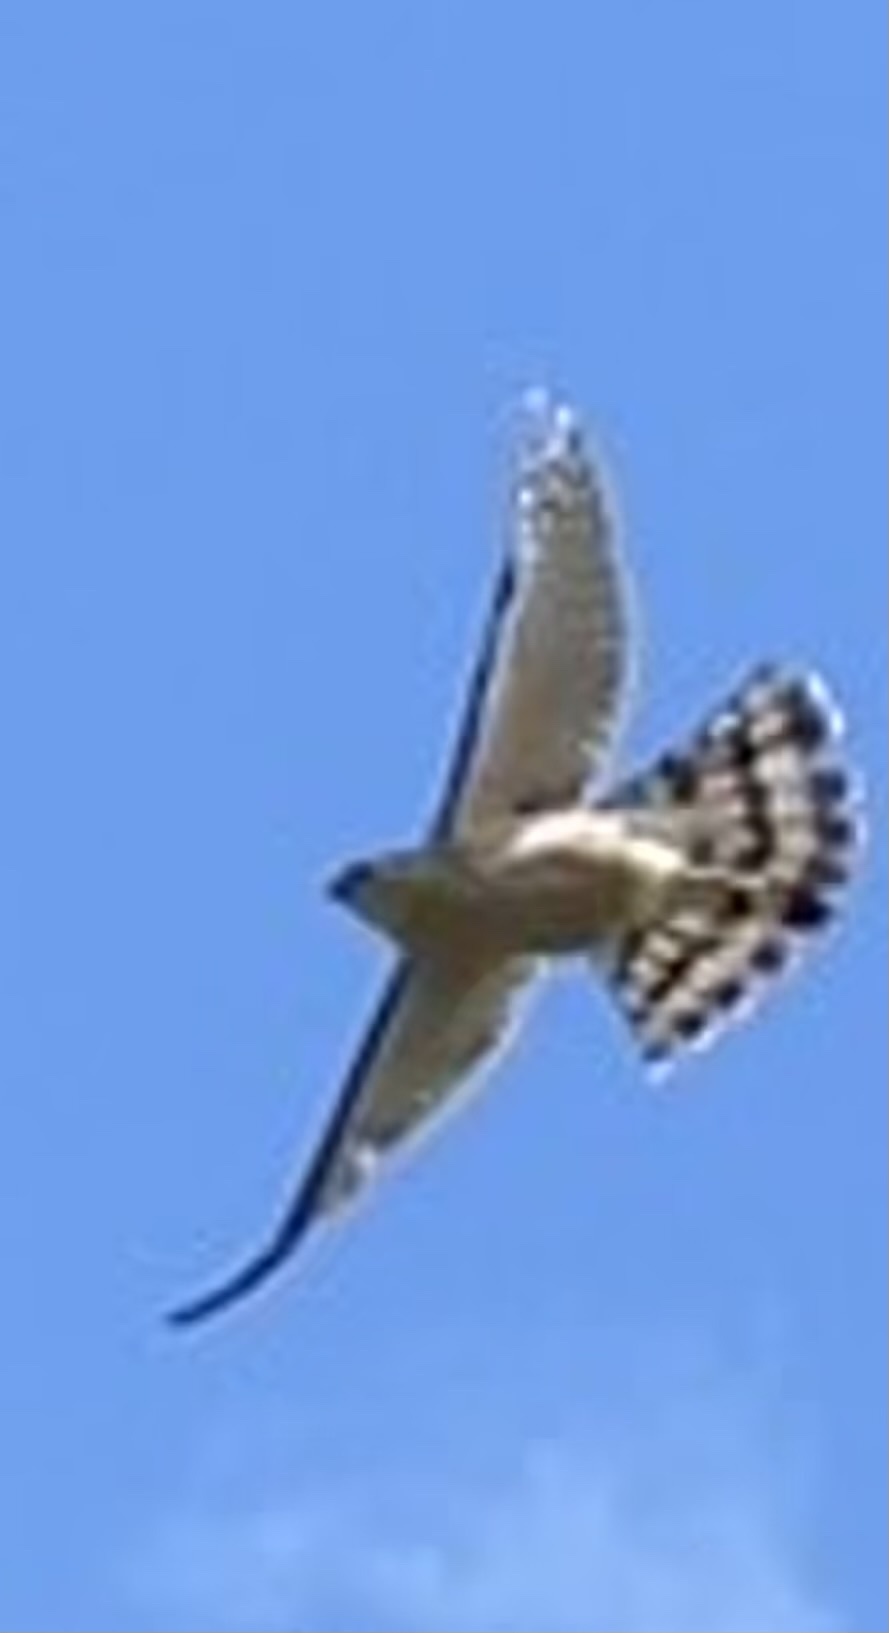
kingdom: Animalia
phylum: Chordata
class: Aves
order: Accipitriformes
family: Accipitridae
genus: Accipiter
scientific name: Accipiter cooperii
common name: Cooper's hawk
